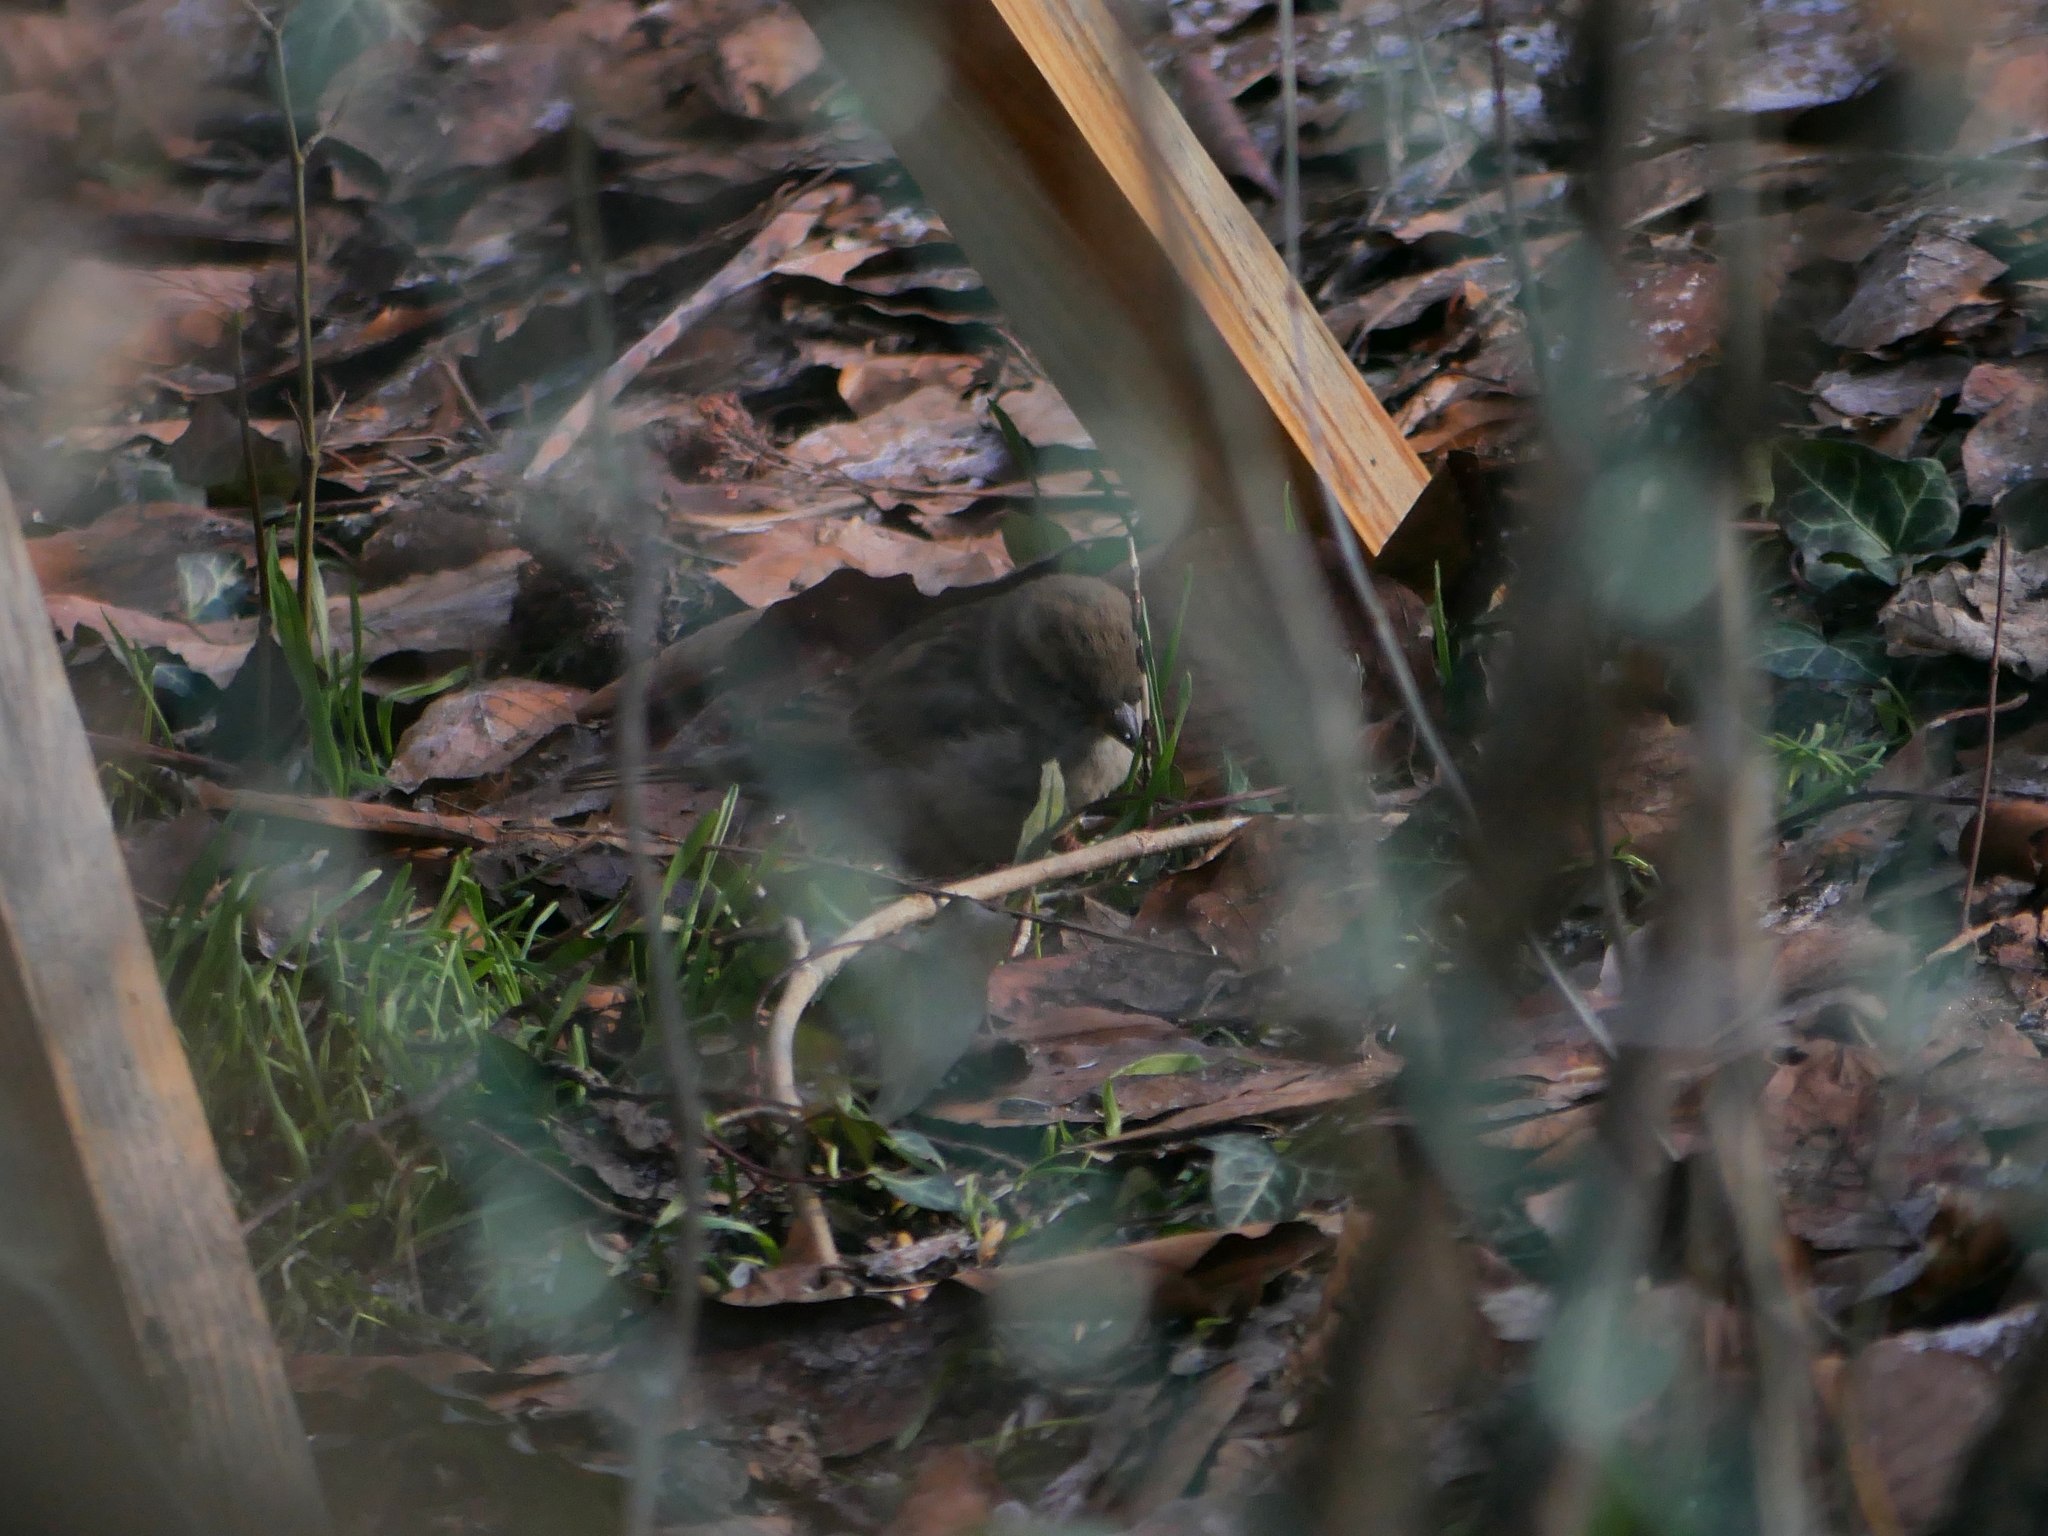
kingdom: Animalia
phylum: Chordata
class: Aves
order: Passeriformes
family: Passeridae
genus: Passer
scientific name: Passer domesticus
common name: House sparrow
